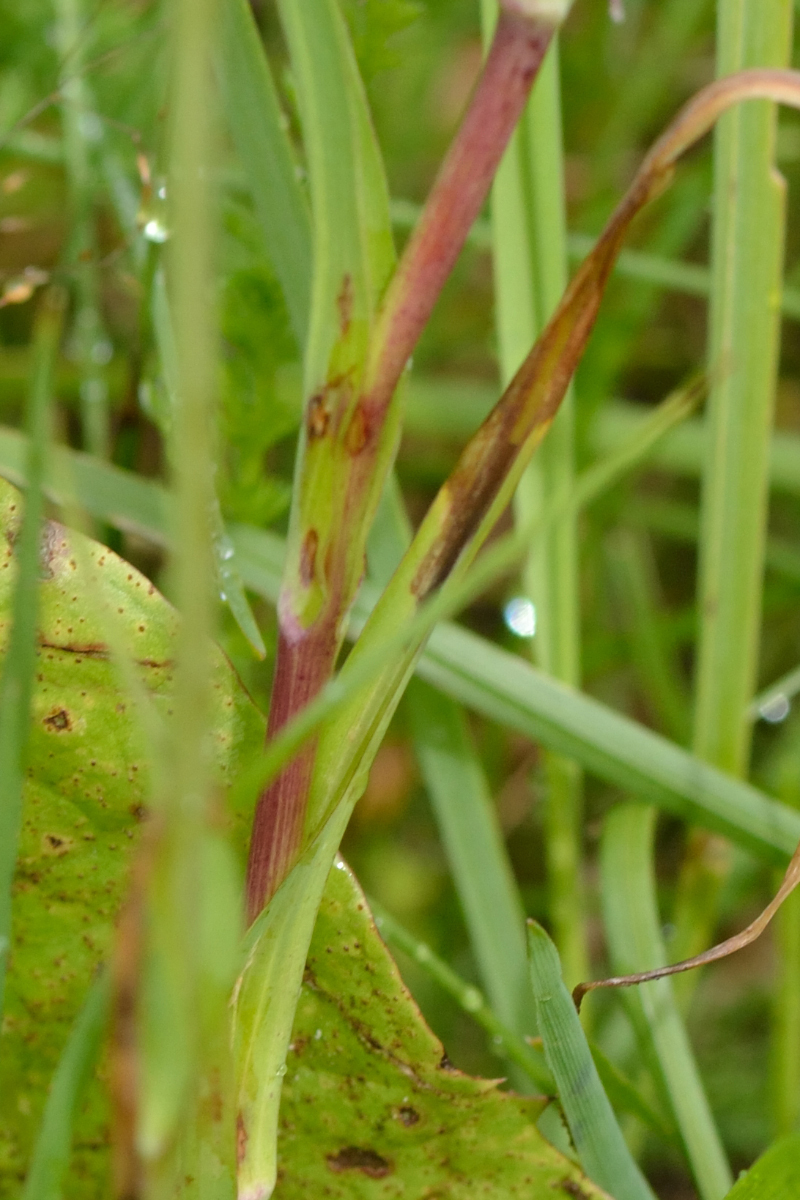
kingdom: Plantae
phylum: Tracheophyta
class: Magnoliopsida
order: Asterales
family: Asteraceae
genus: Tragopogon
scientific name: Tragopogon pratensis
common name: Goat's-beard
